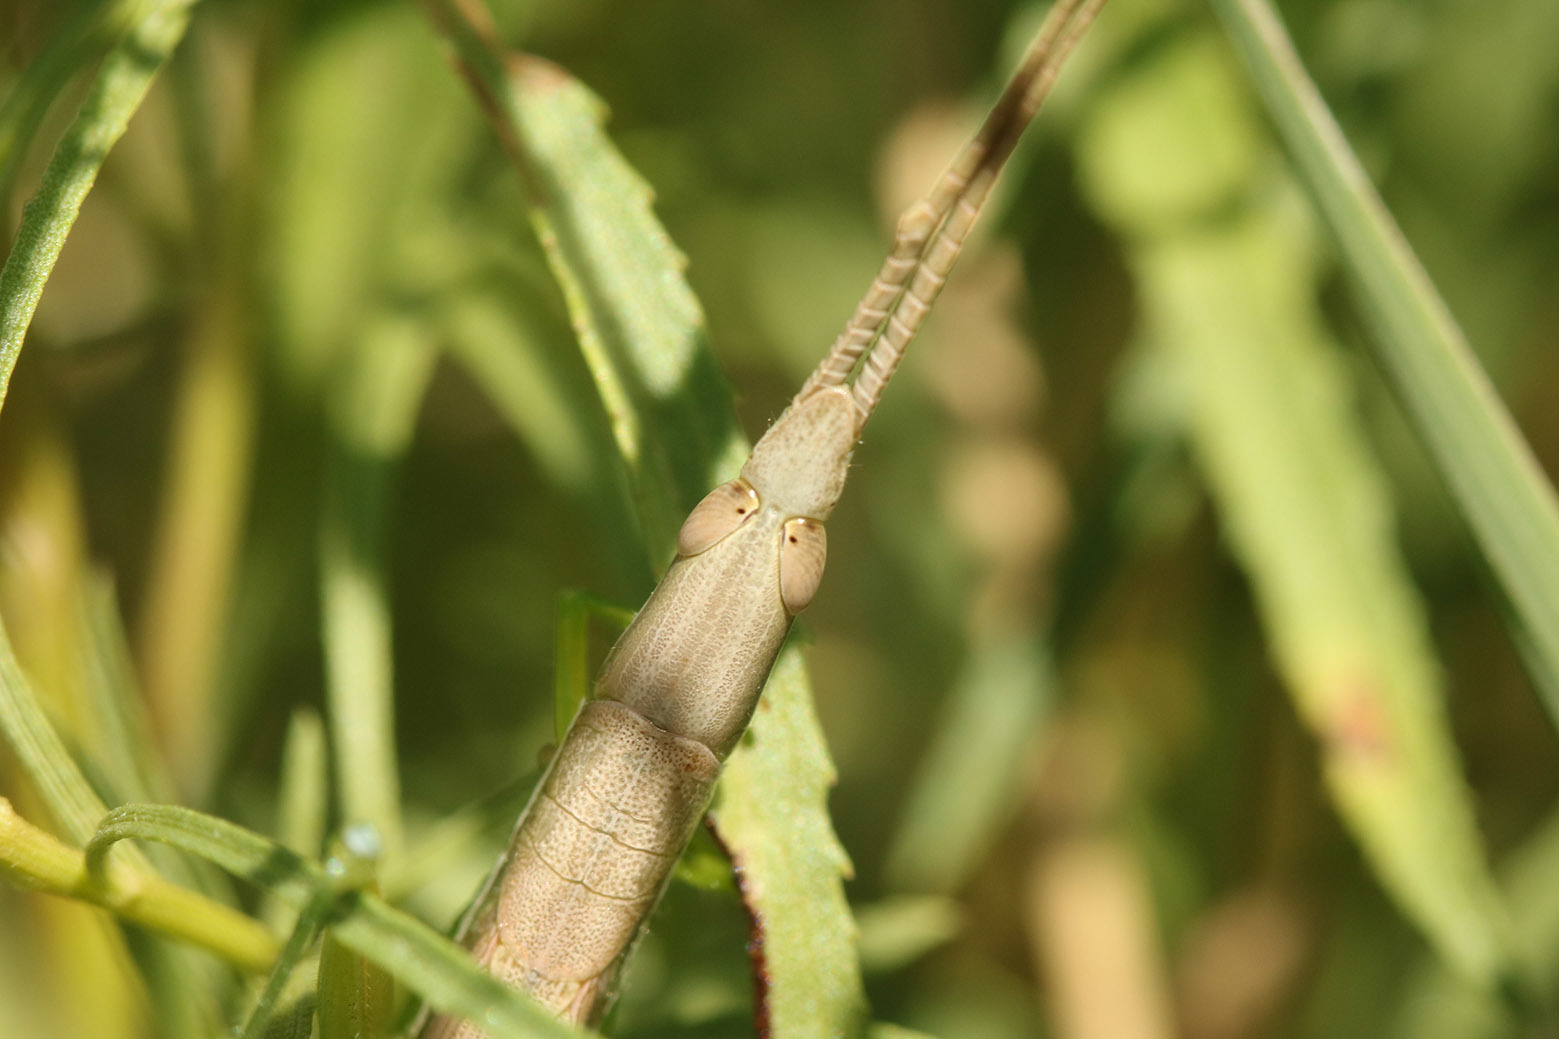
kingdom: Animalia
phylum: Arthropoda
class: Insecta
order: Orthoptera
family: Acrididae
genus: Leptysma
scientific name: Leptysma argentina
